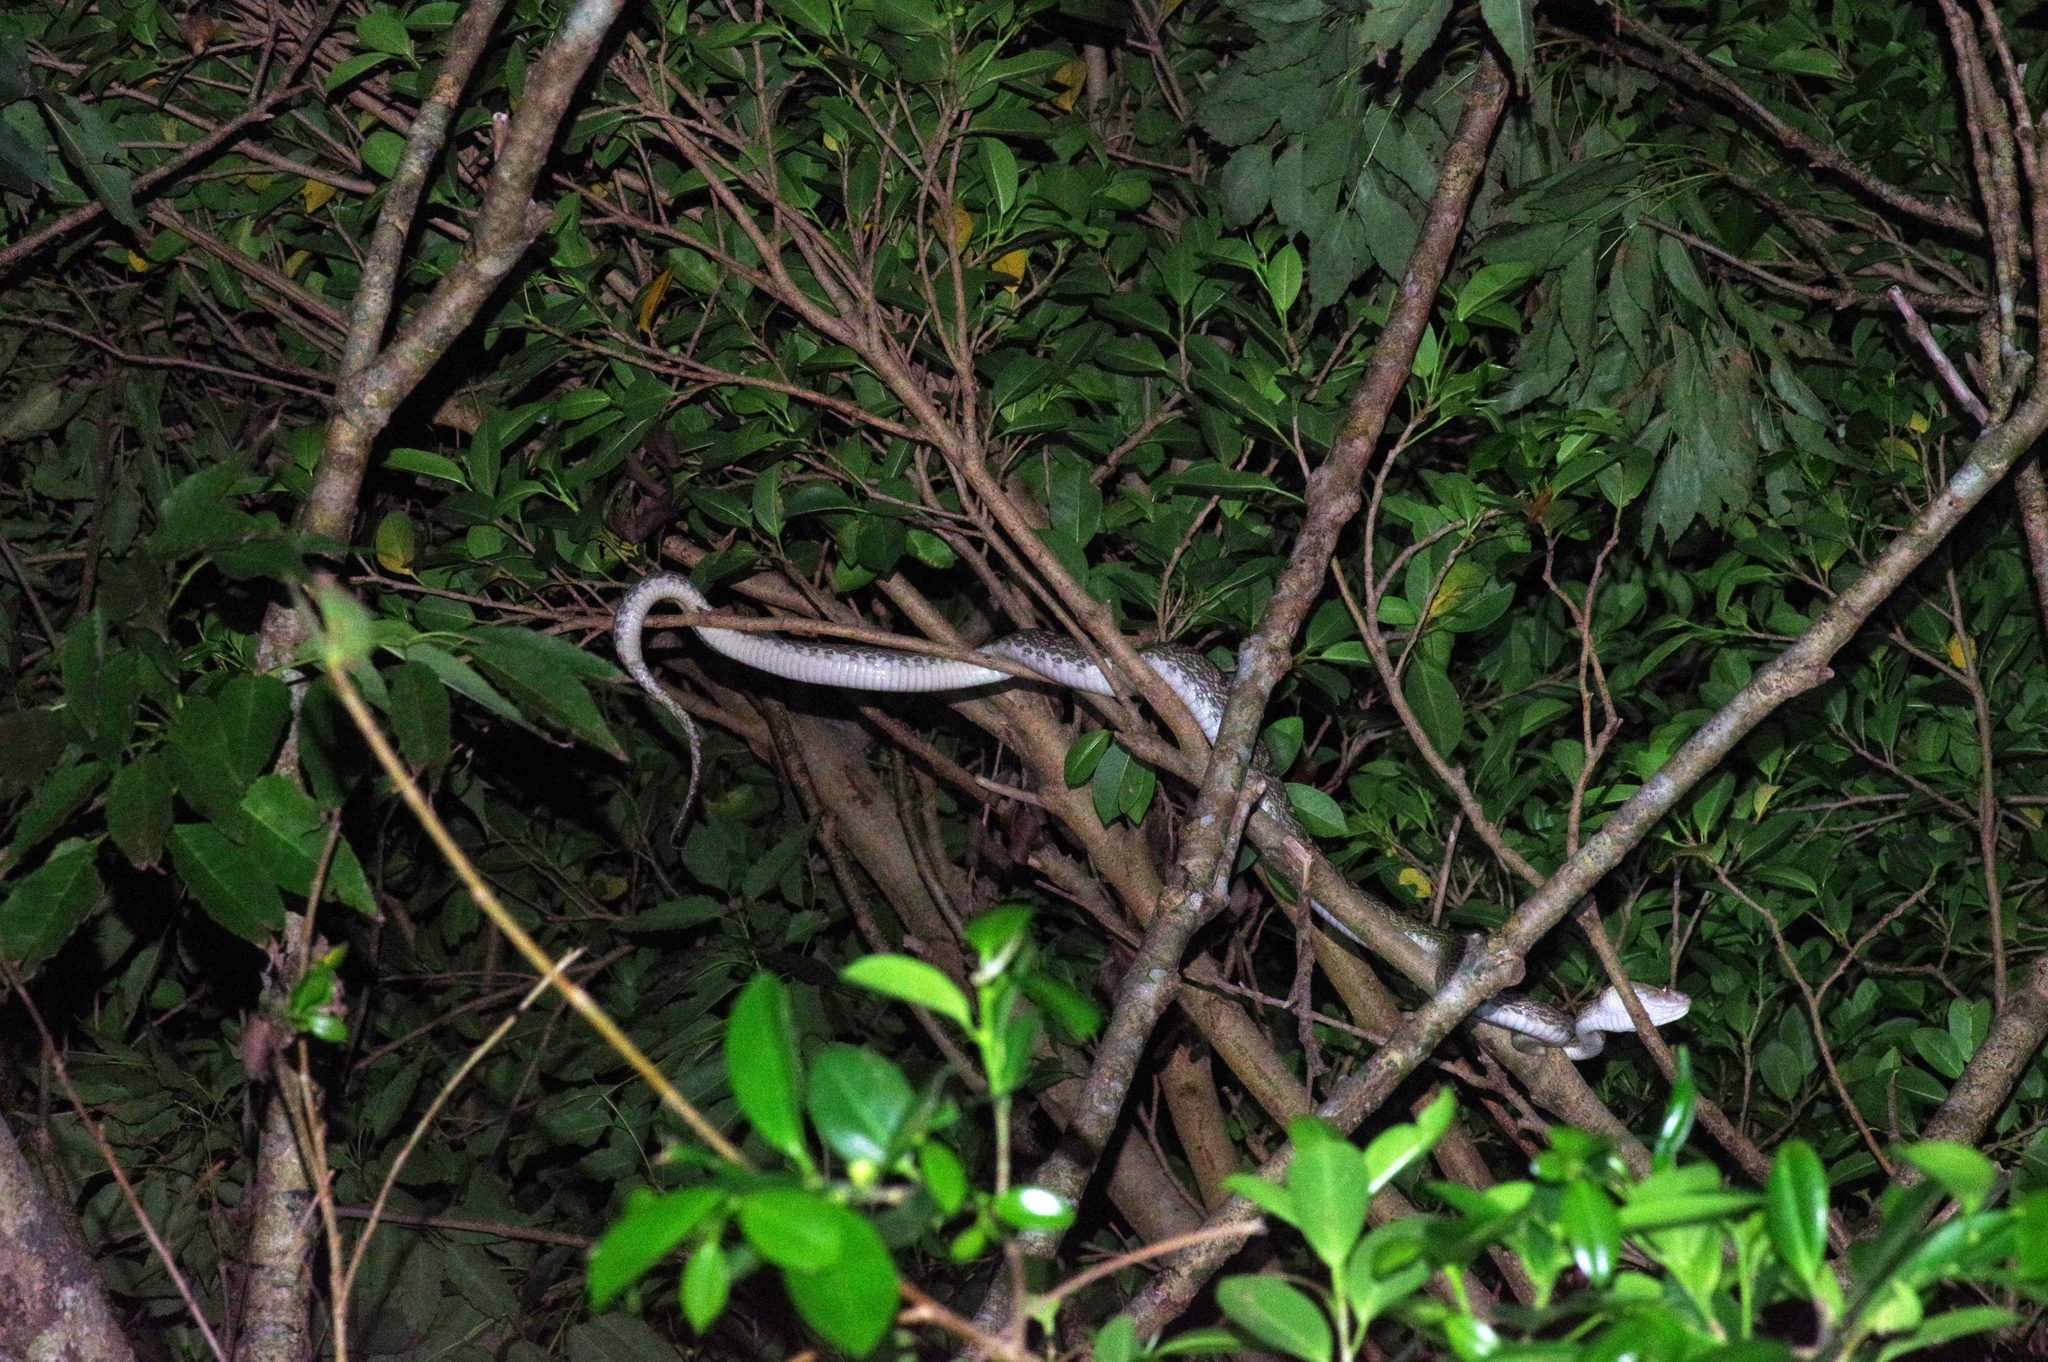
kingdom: Animalia
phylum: Chordata
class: Squamata
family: Viperidae
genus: Protobothrops
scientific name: Protobothrops flavoviridis
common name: Habu
